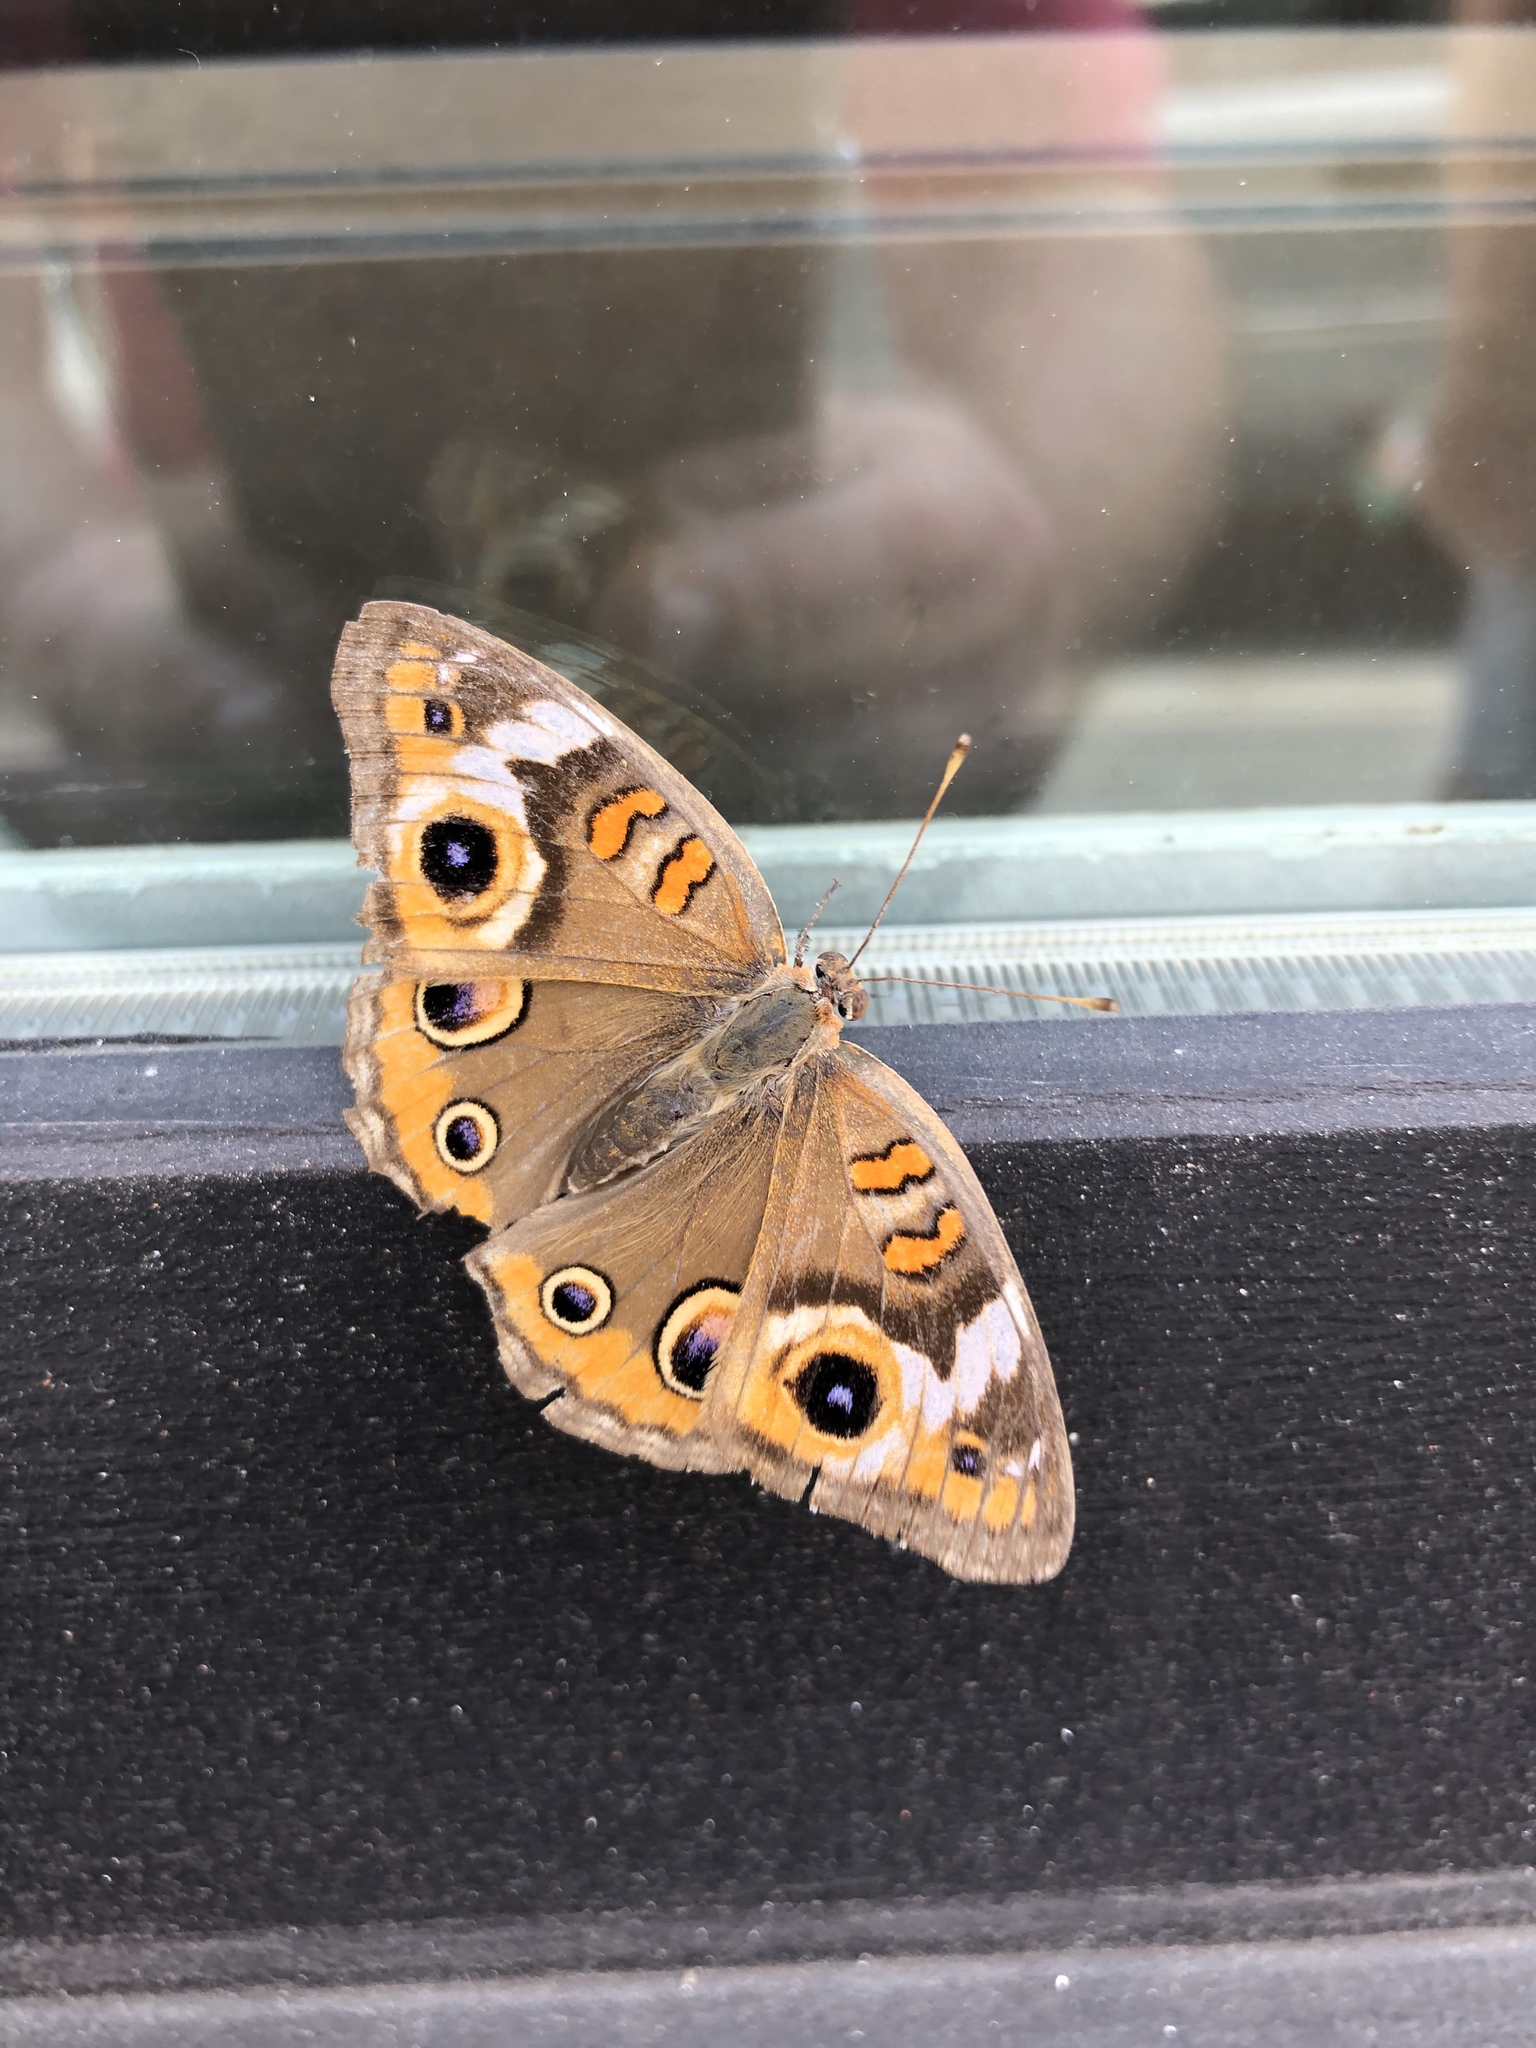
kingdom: Animalia
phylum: Arthropoda
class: Insecta
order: Lepidoptera
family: Nymphalidae
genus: Junonia
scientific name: Junonia coenia
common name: Common buckeye
